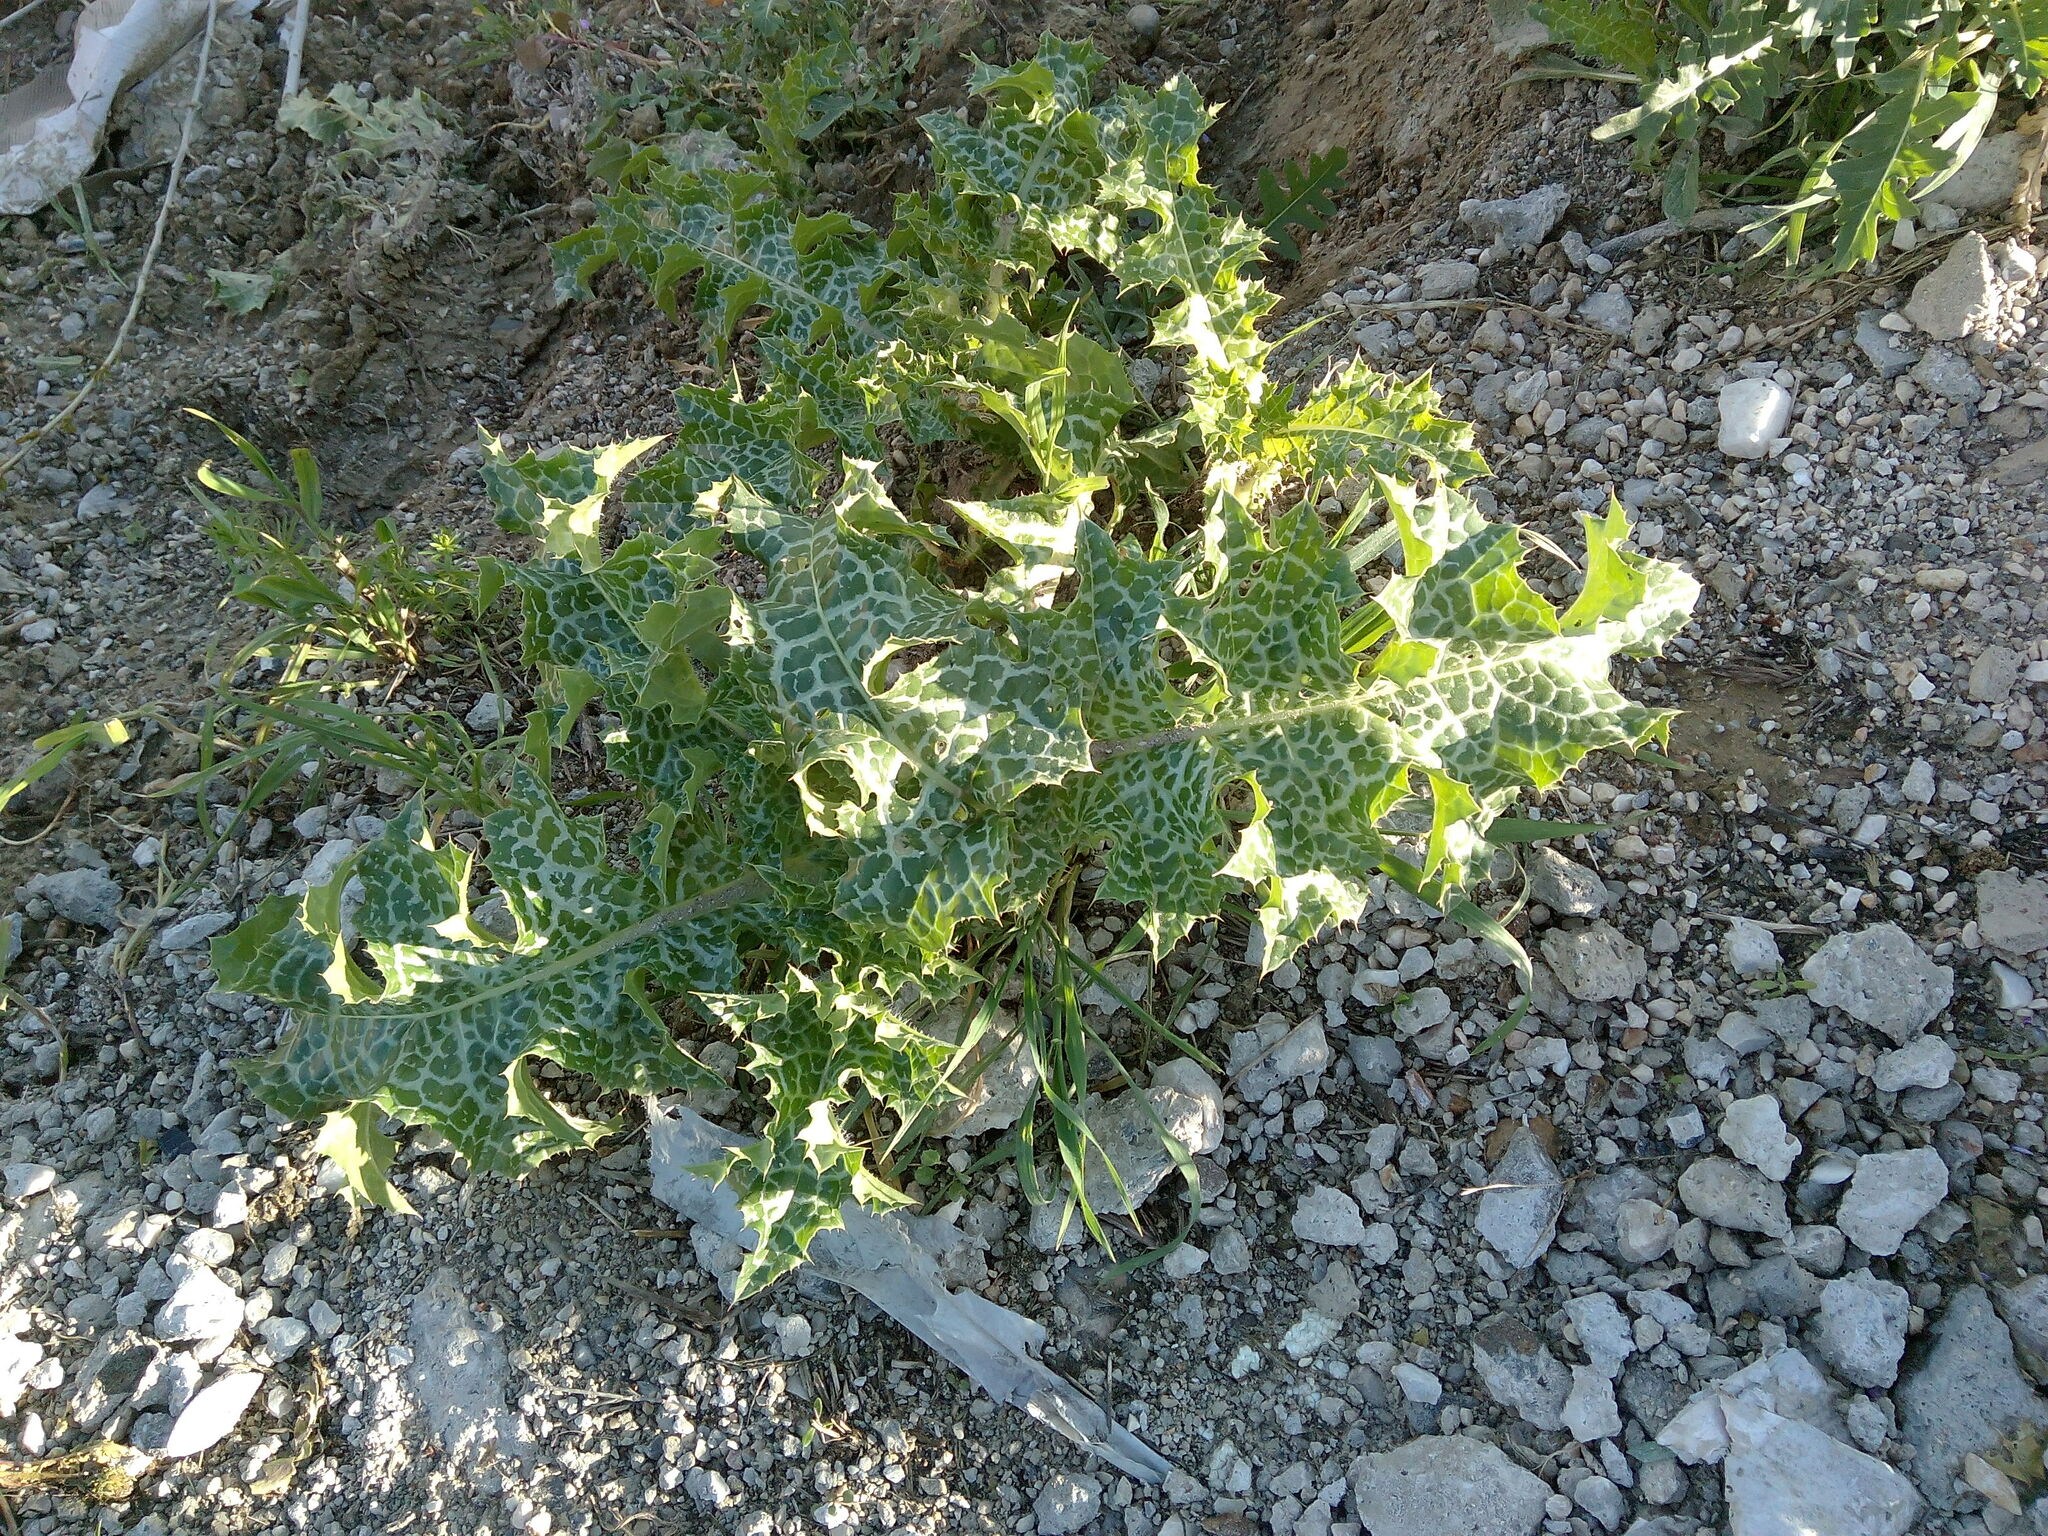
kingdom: Plantae
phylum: Tracheophyta
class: Magnoliopsida
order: Asterales
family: Asteraceae
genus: Silybum
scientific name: Silybum marianum
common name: Milk thistle
